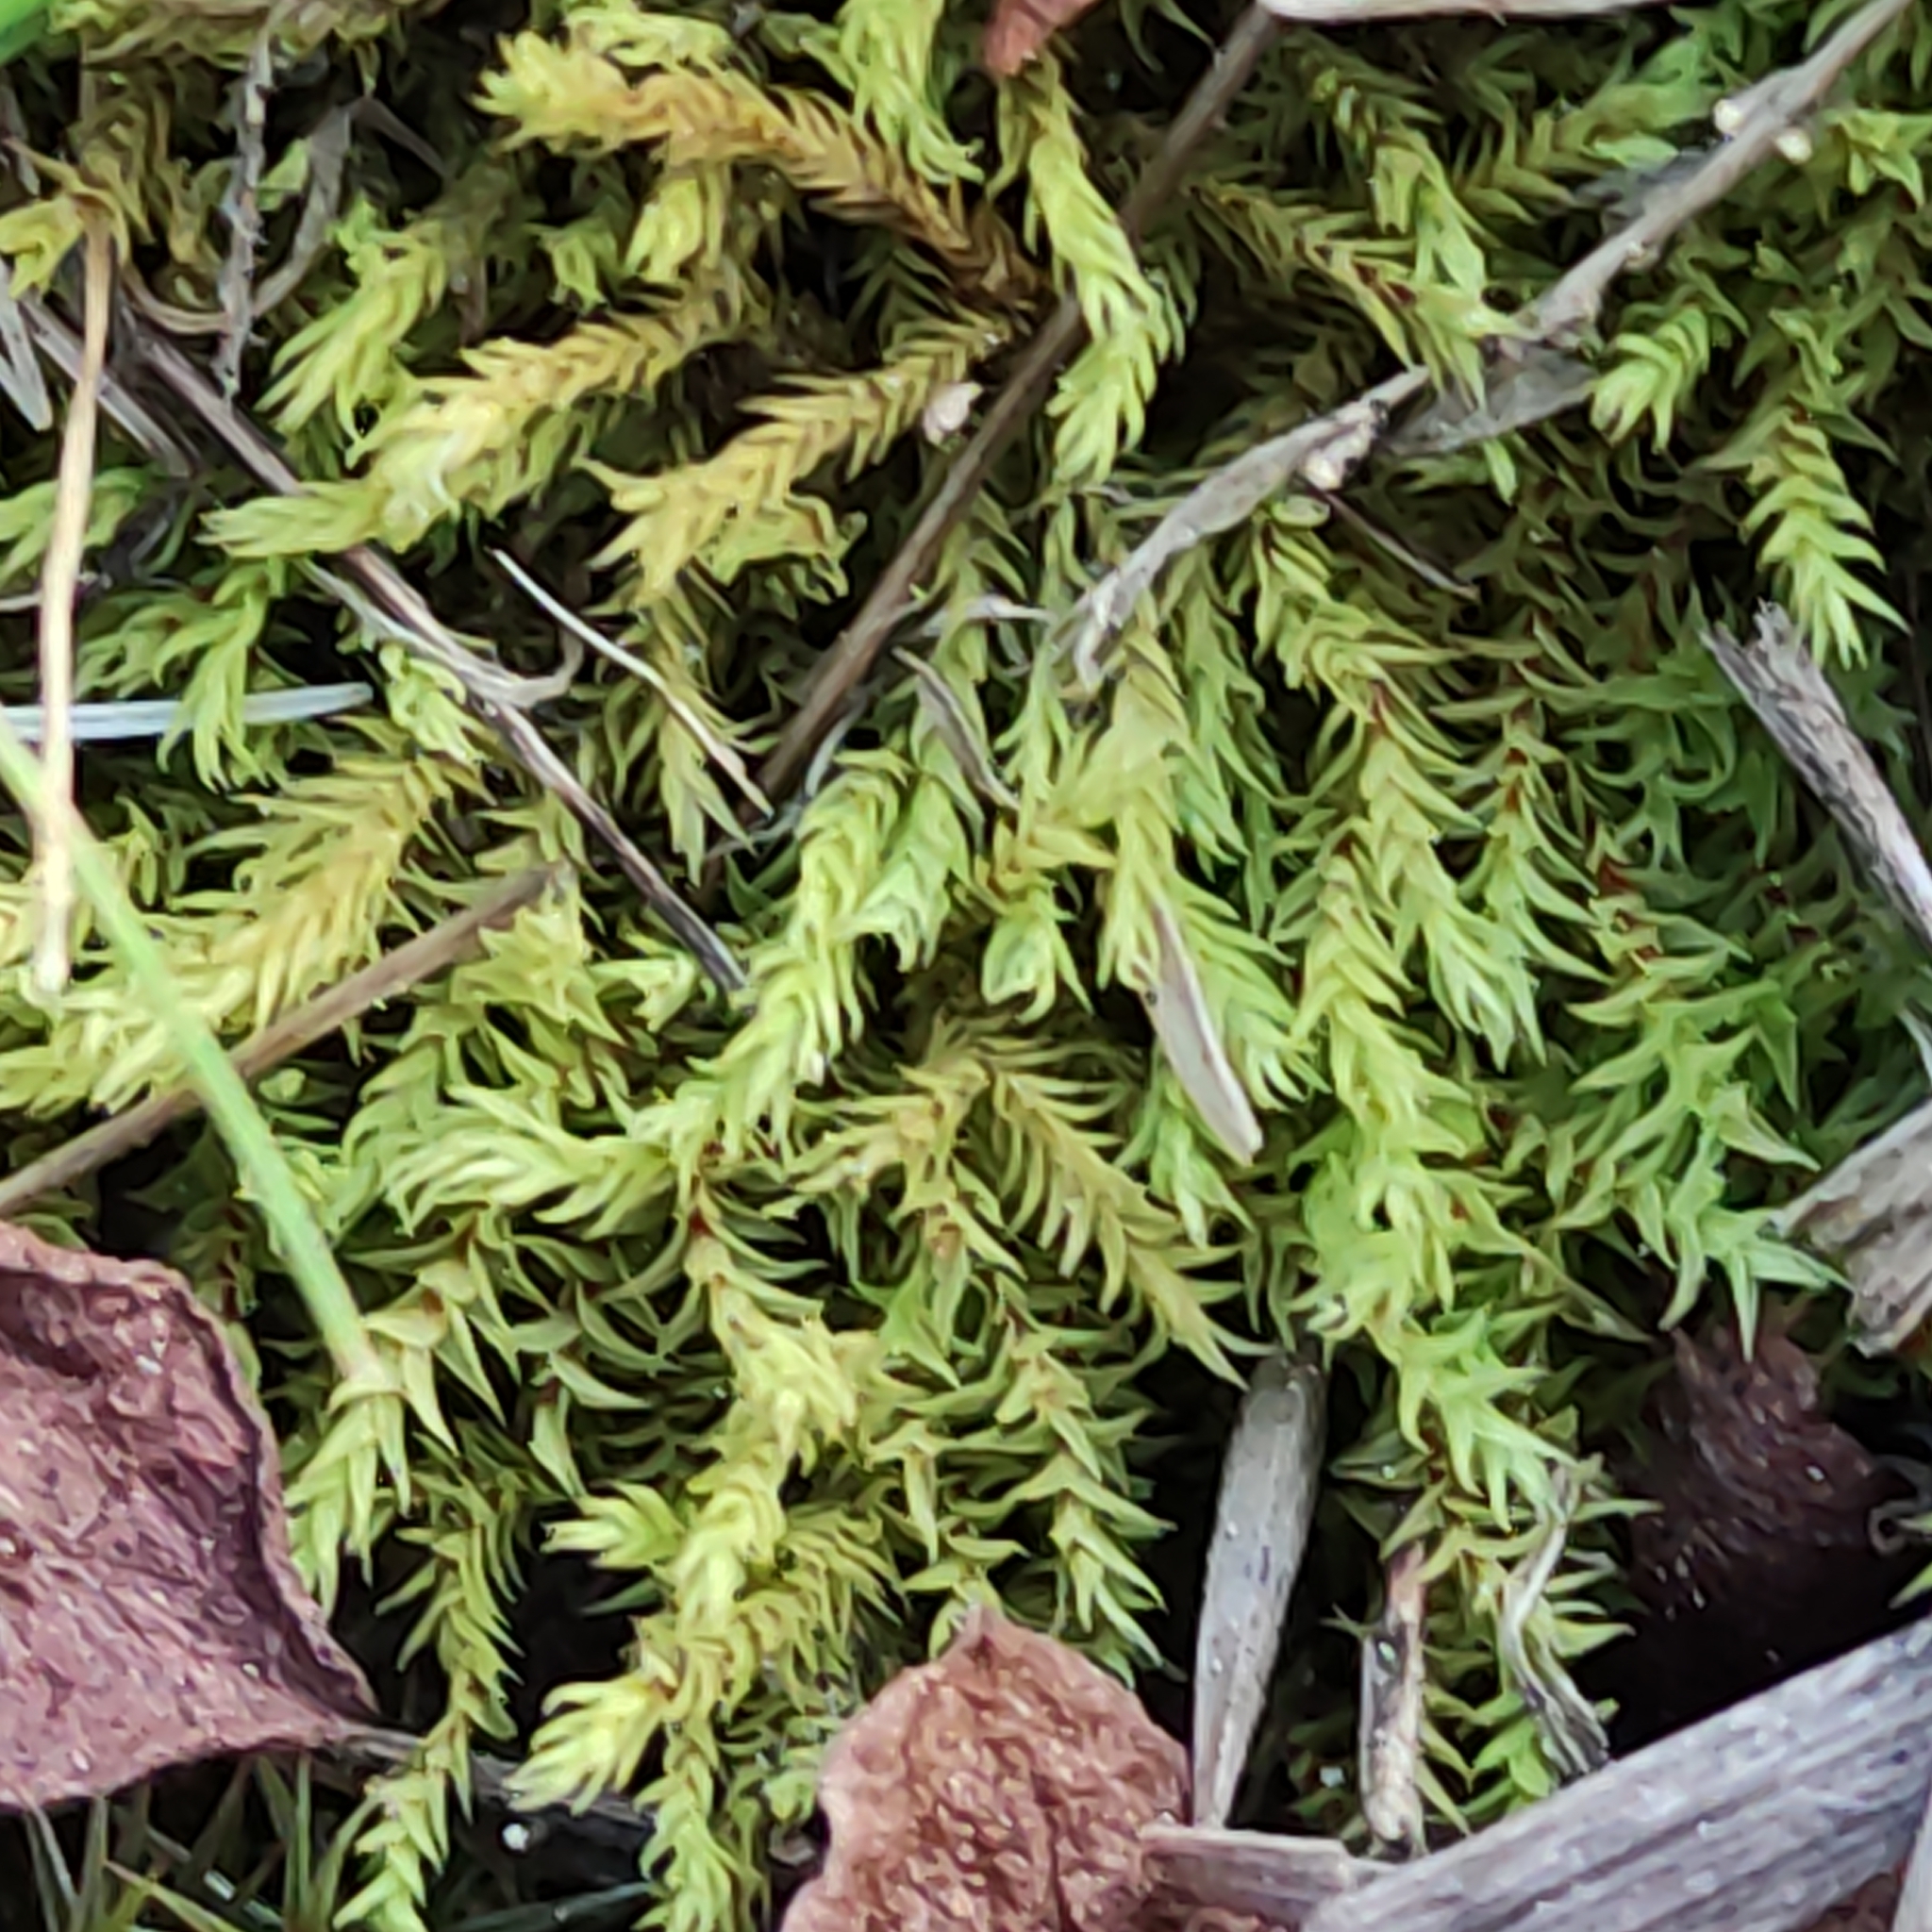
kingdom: Plantae
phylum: Bryophyta
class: Bryopsida
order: Pottiales
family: Pottiaceae
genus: Triquetrella
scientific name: Triquetrella papillata
